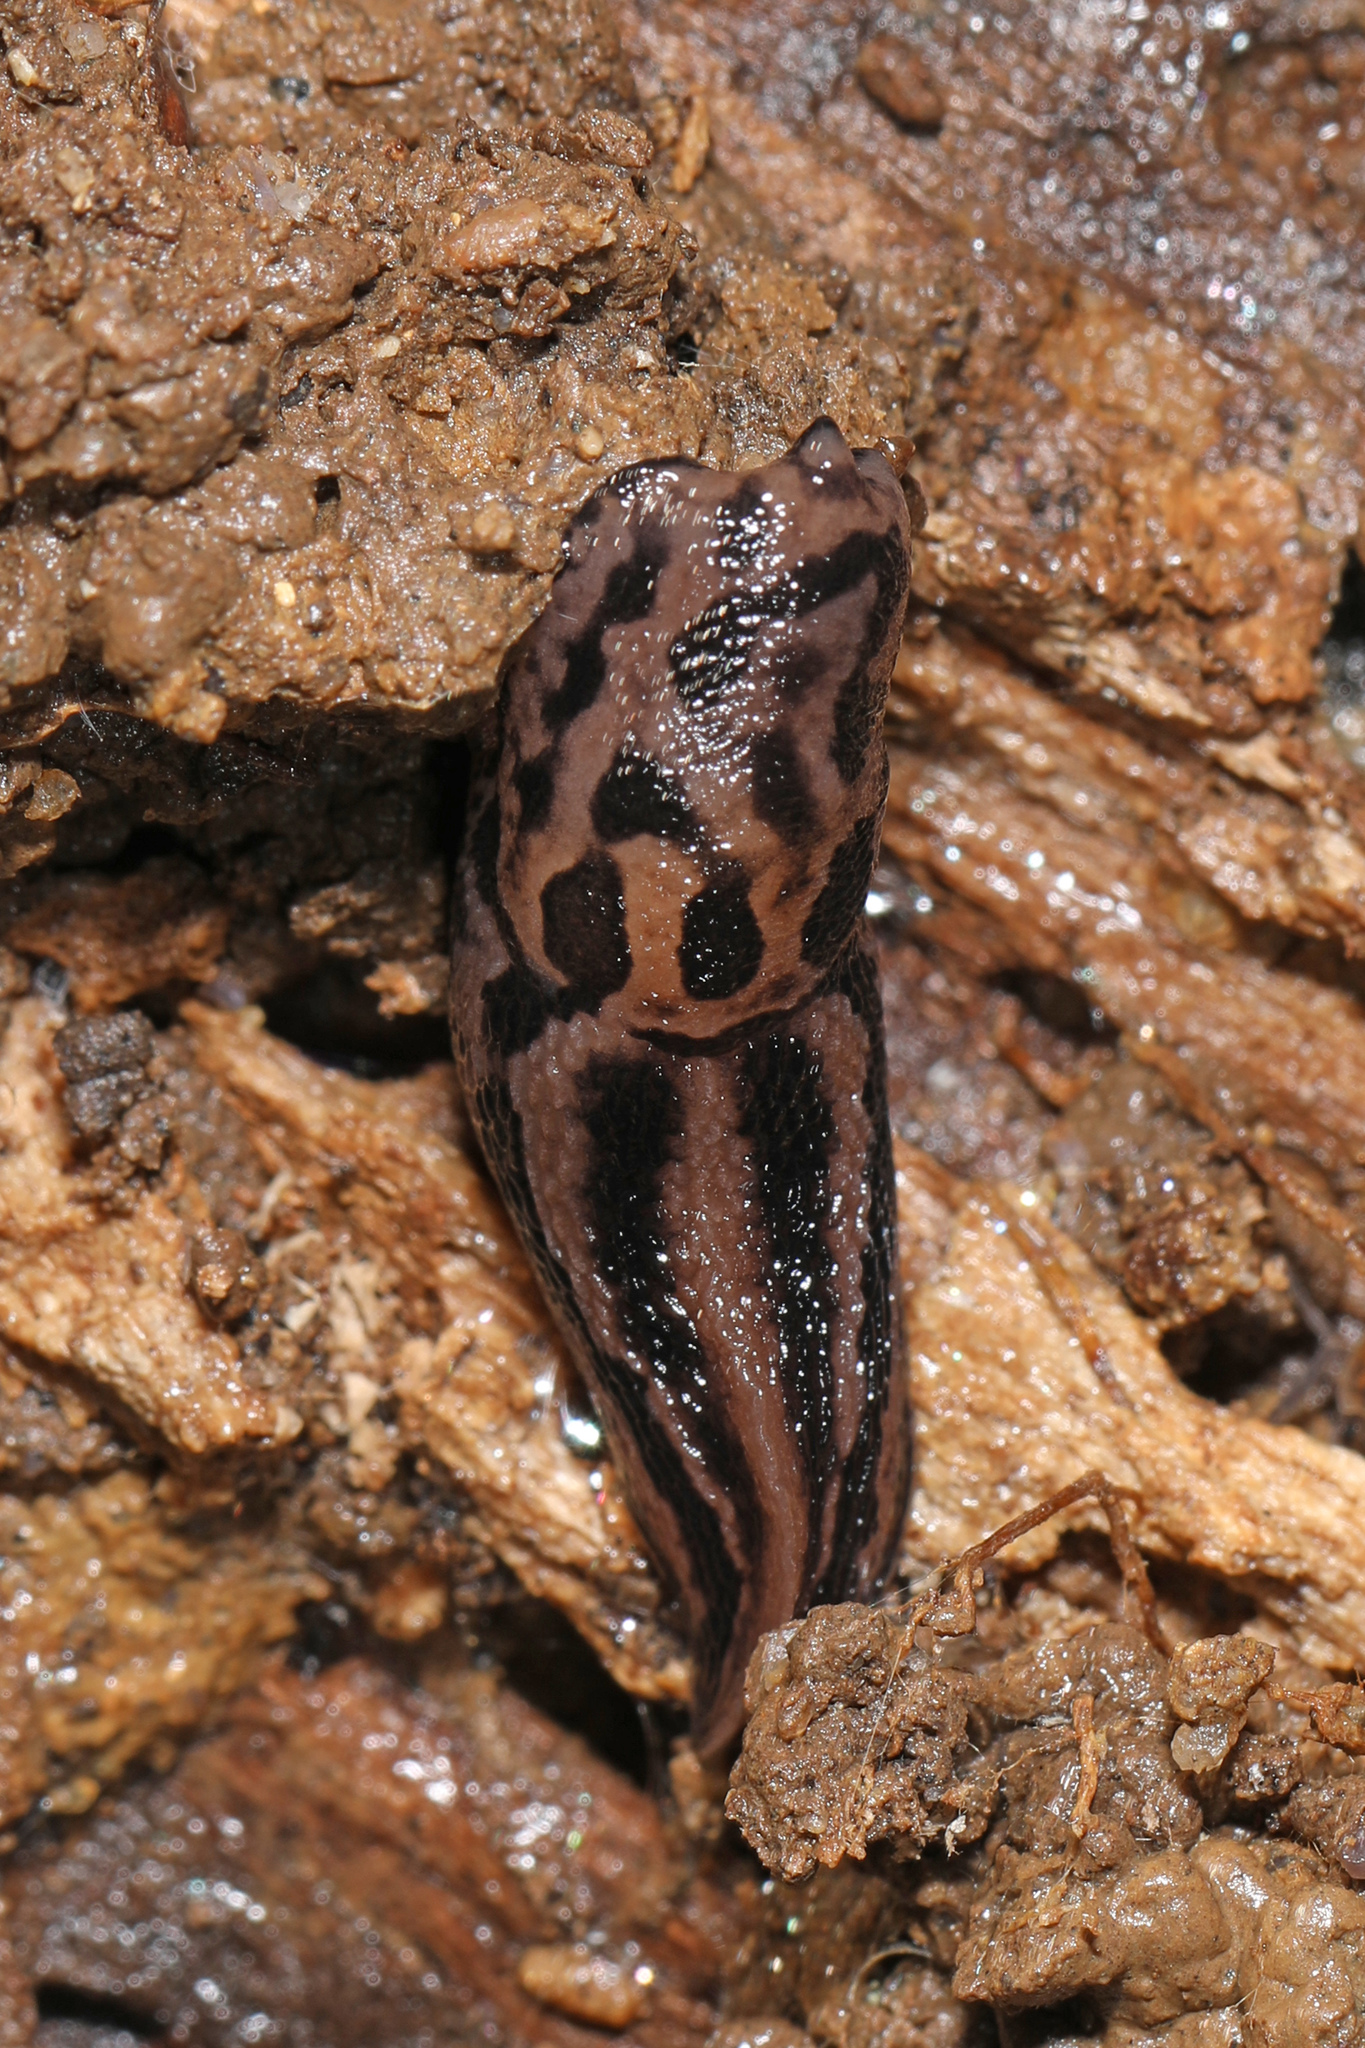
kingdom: Animalia
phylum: Mollusca
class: Gastropoda
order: Stylommatophora
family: Limacidae
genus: Limax
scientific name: Limax maximus
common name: Great grey slug
